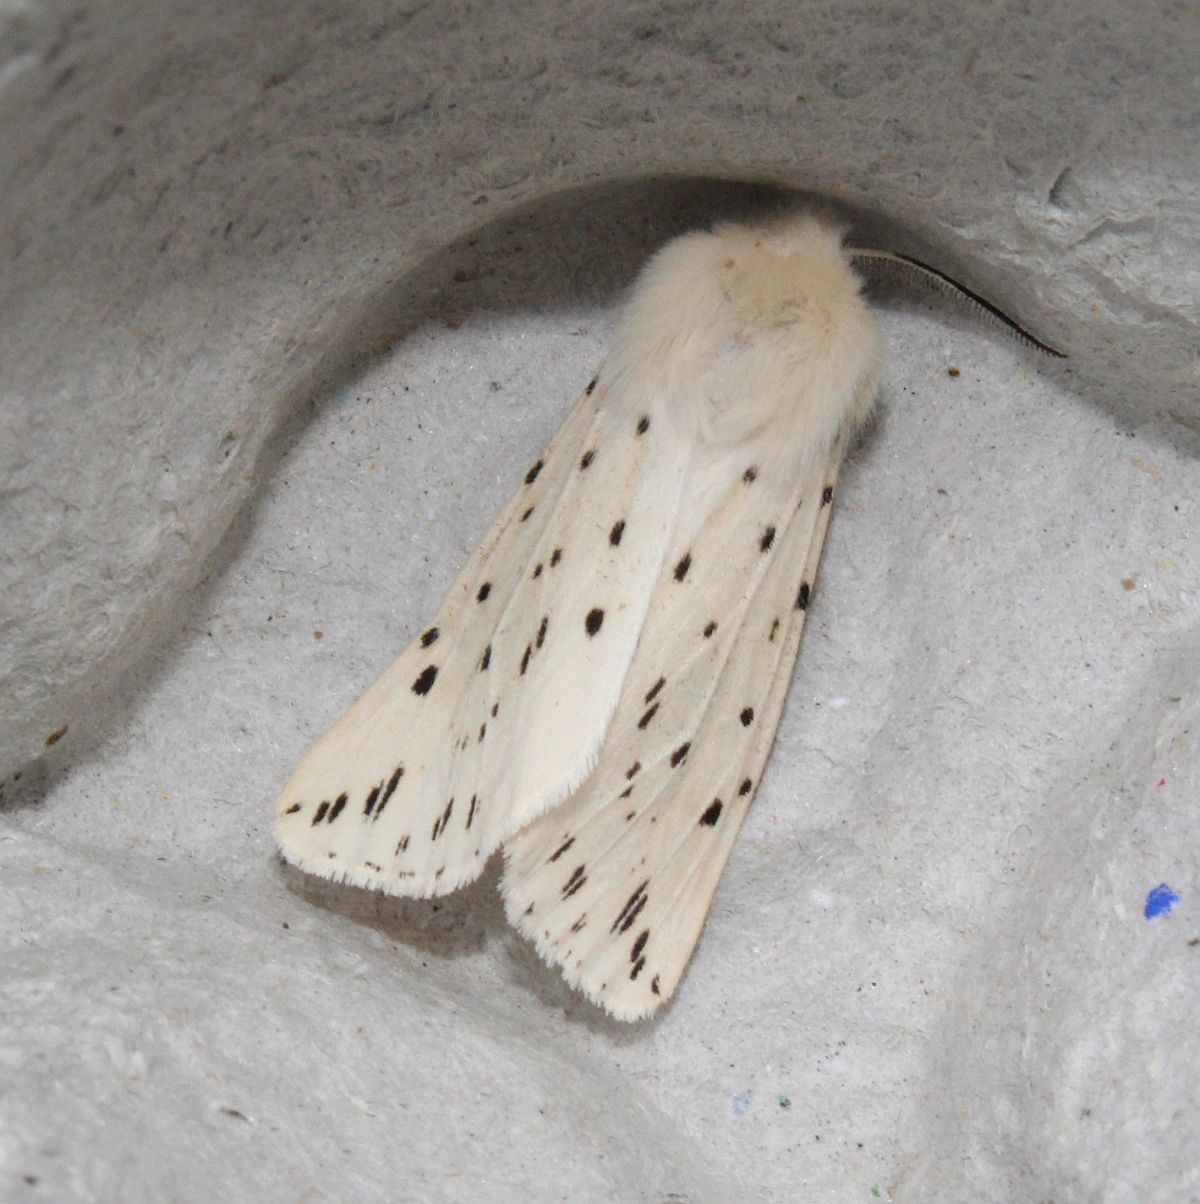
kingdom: Animalia
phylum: Arthropoda
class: Insecta
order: Lepidoptera
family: Erebidae
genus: Spilosoma
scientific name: Spilosoma lubricipeda
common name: White ermine
